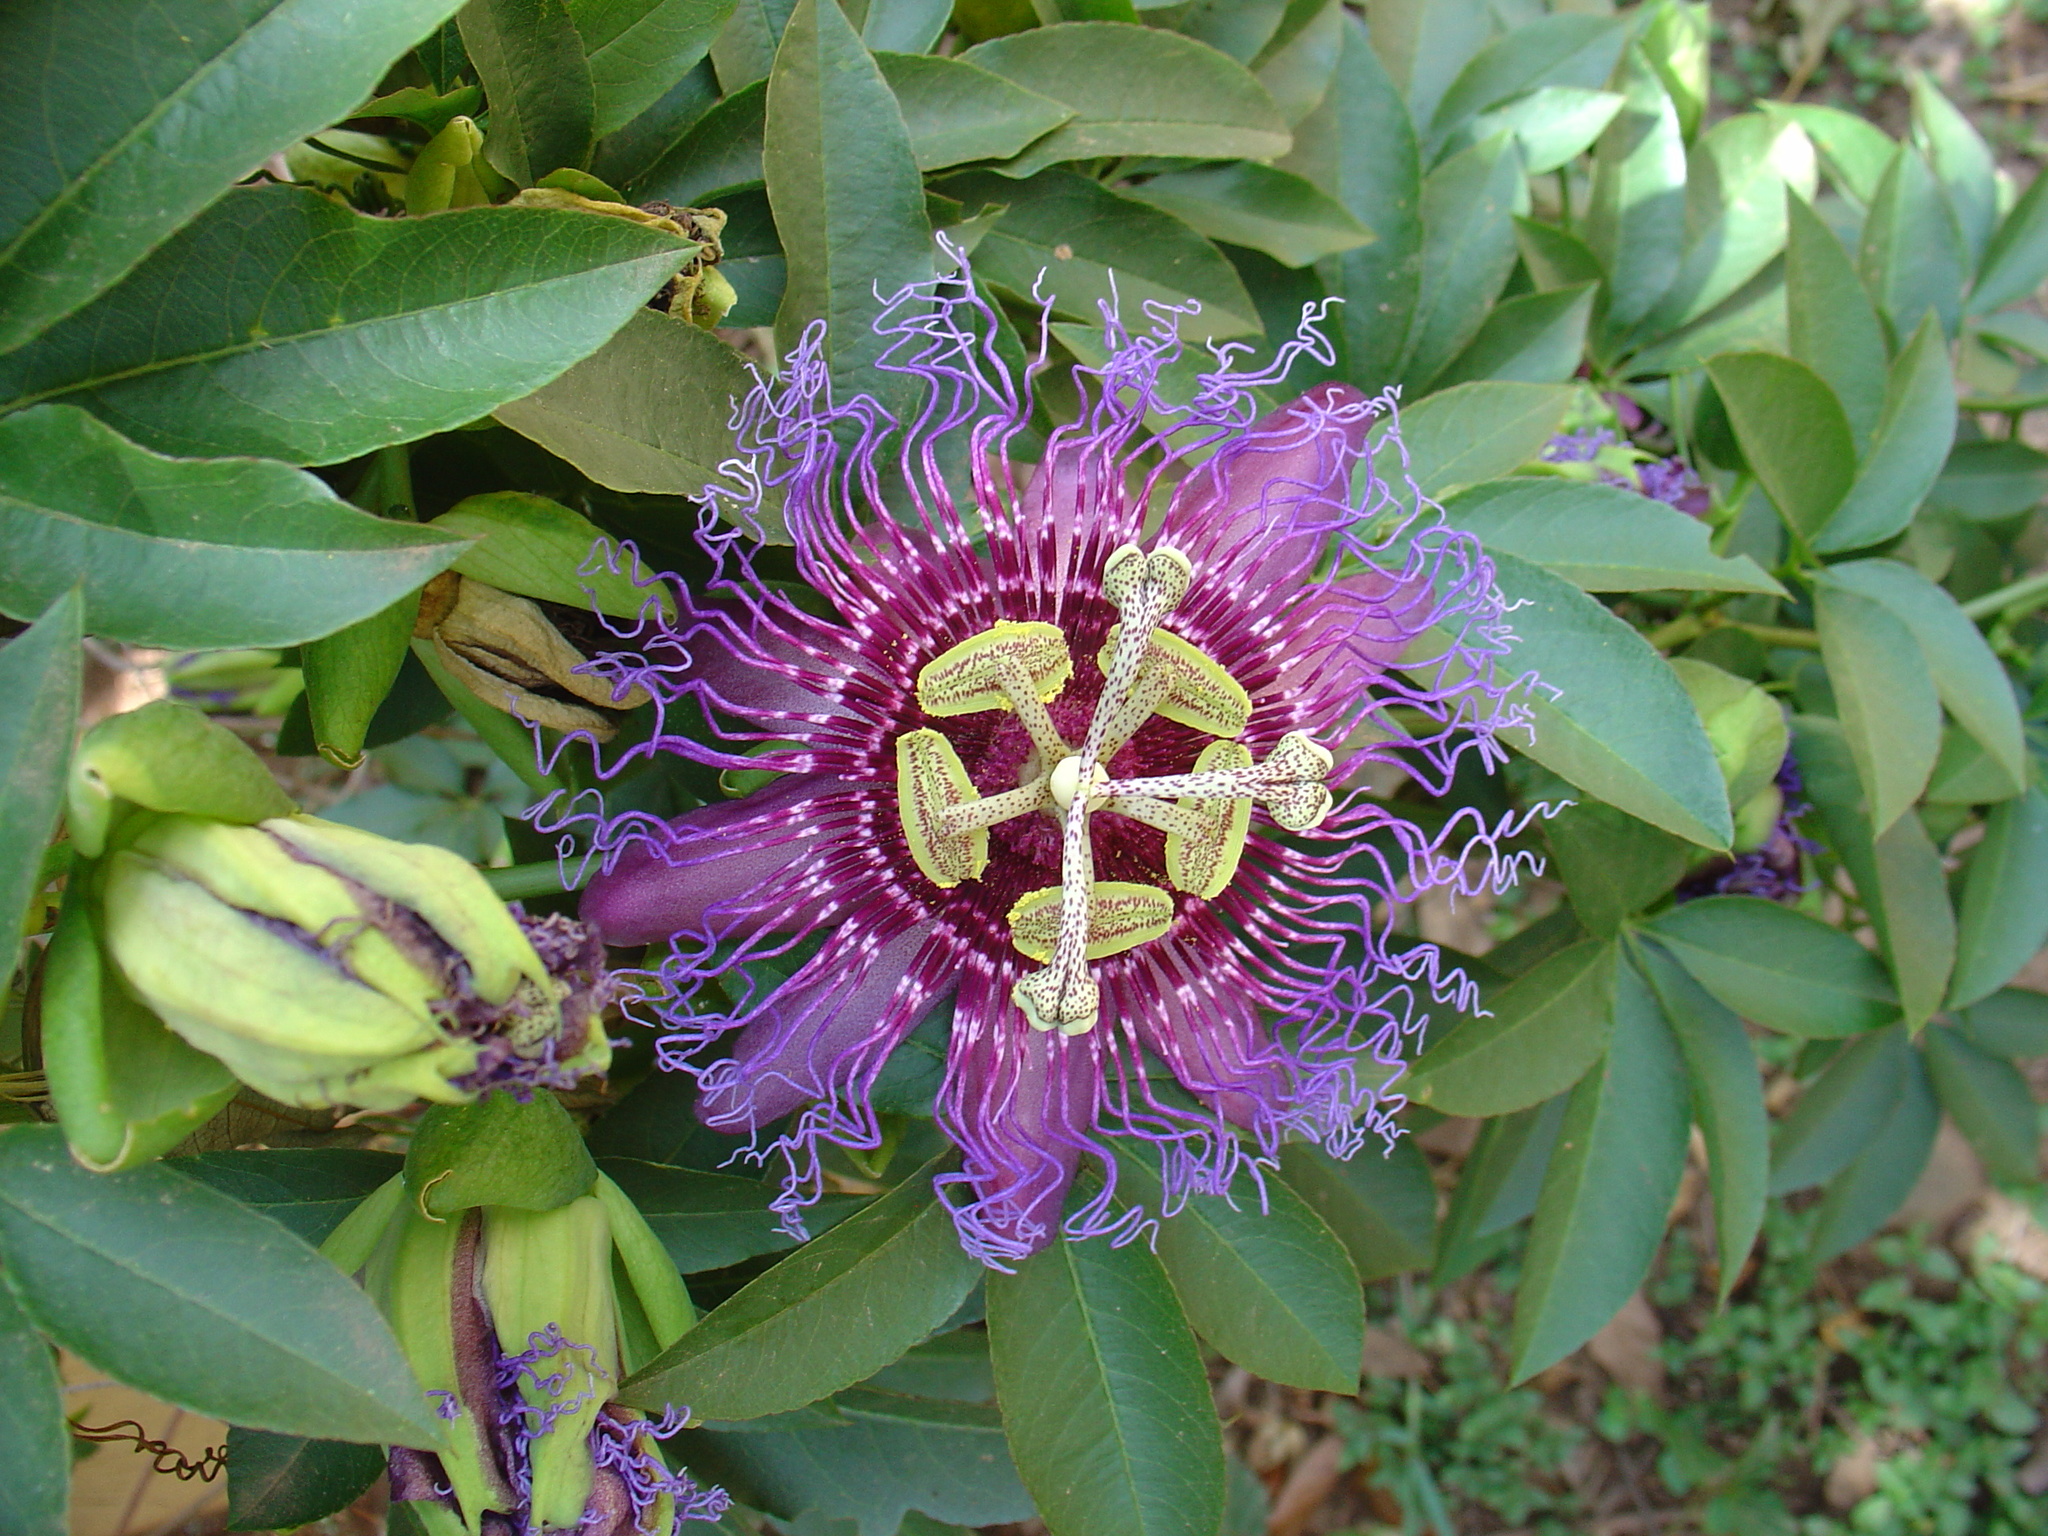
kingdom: Plantae
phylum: Tracheophyta
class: Magnoliopsida
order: Malpighiales
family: Passifloraceae
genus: Passiflora
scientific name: Passiflora cincinnata
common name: Crato passionvine
